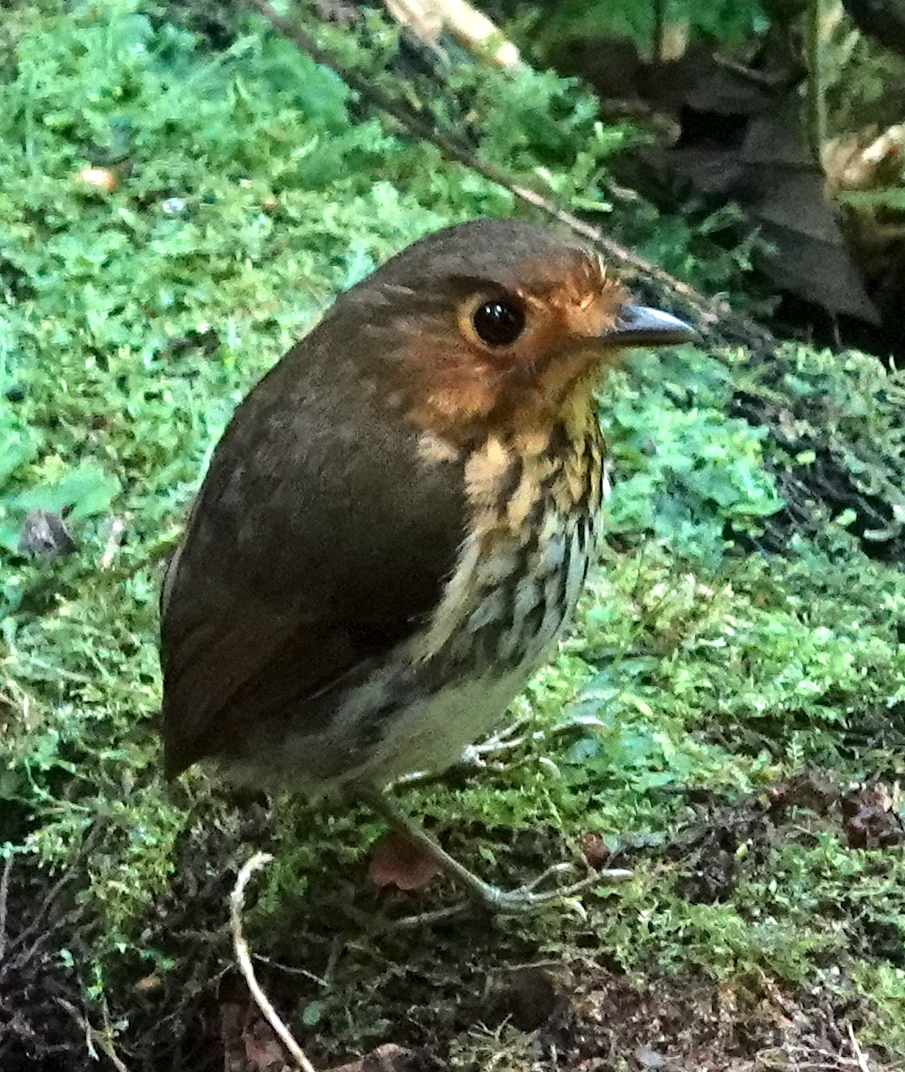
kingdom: Animalia
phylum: Chordata
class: Aves
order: Passeriformes
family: Grallariidae
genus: Grallaricula
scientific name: Grallaricula flavirostris
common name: Ochre-breasted antpitta
